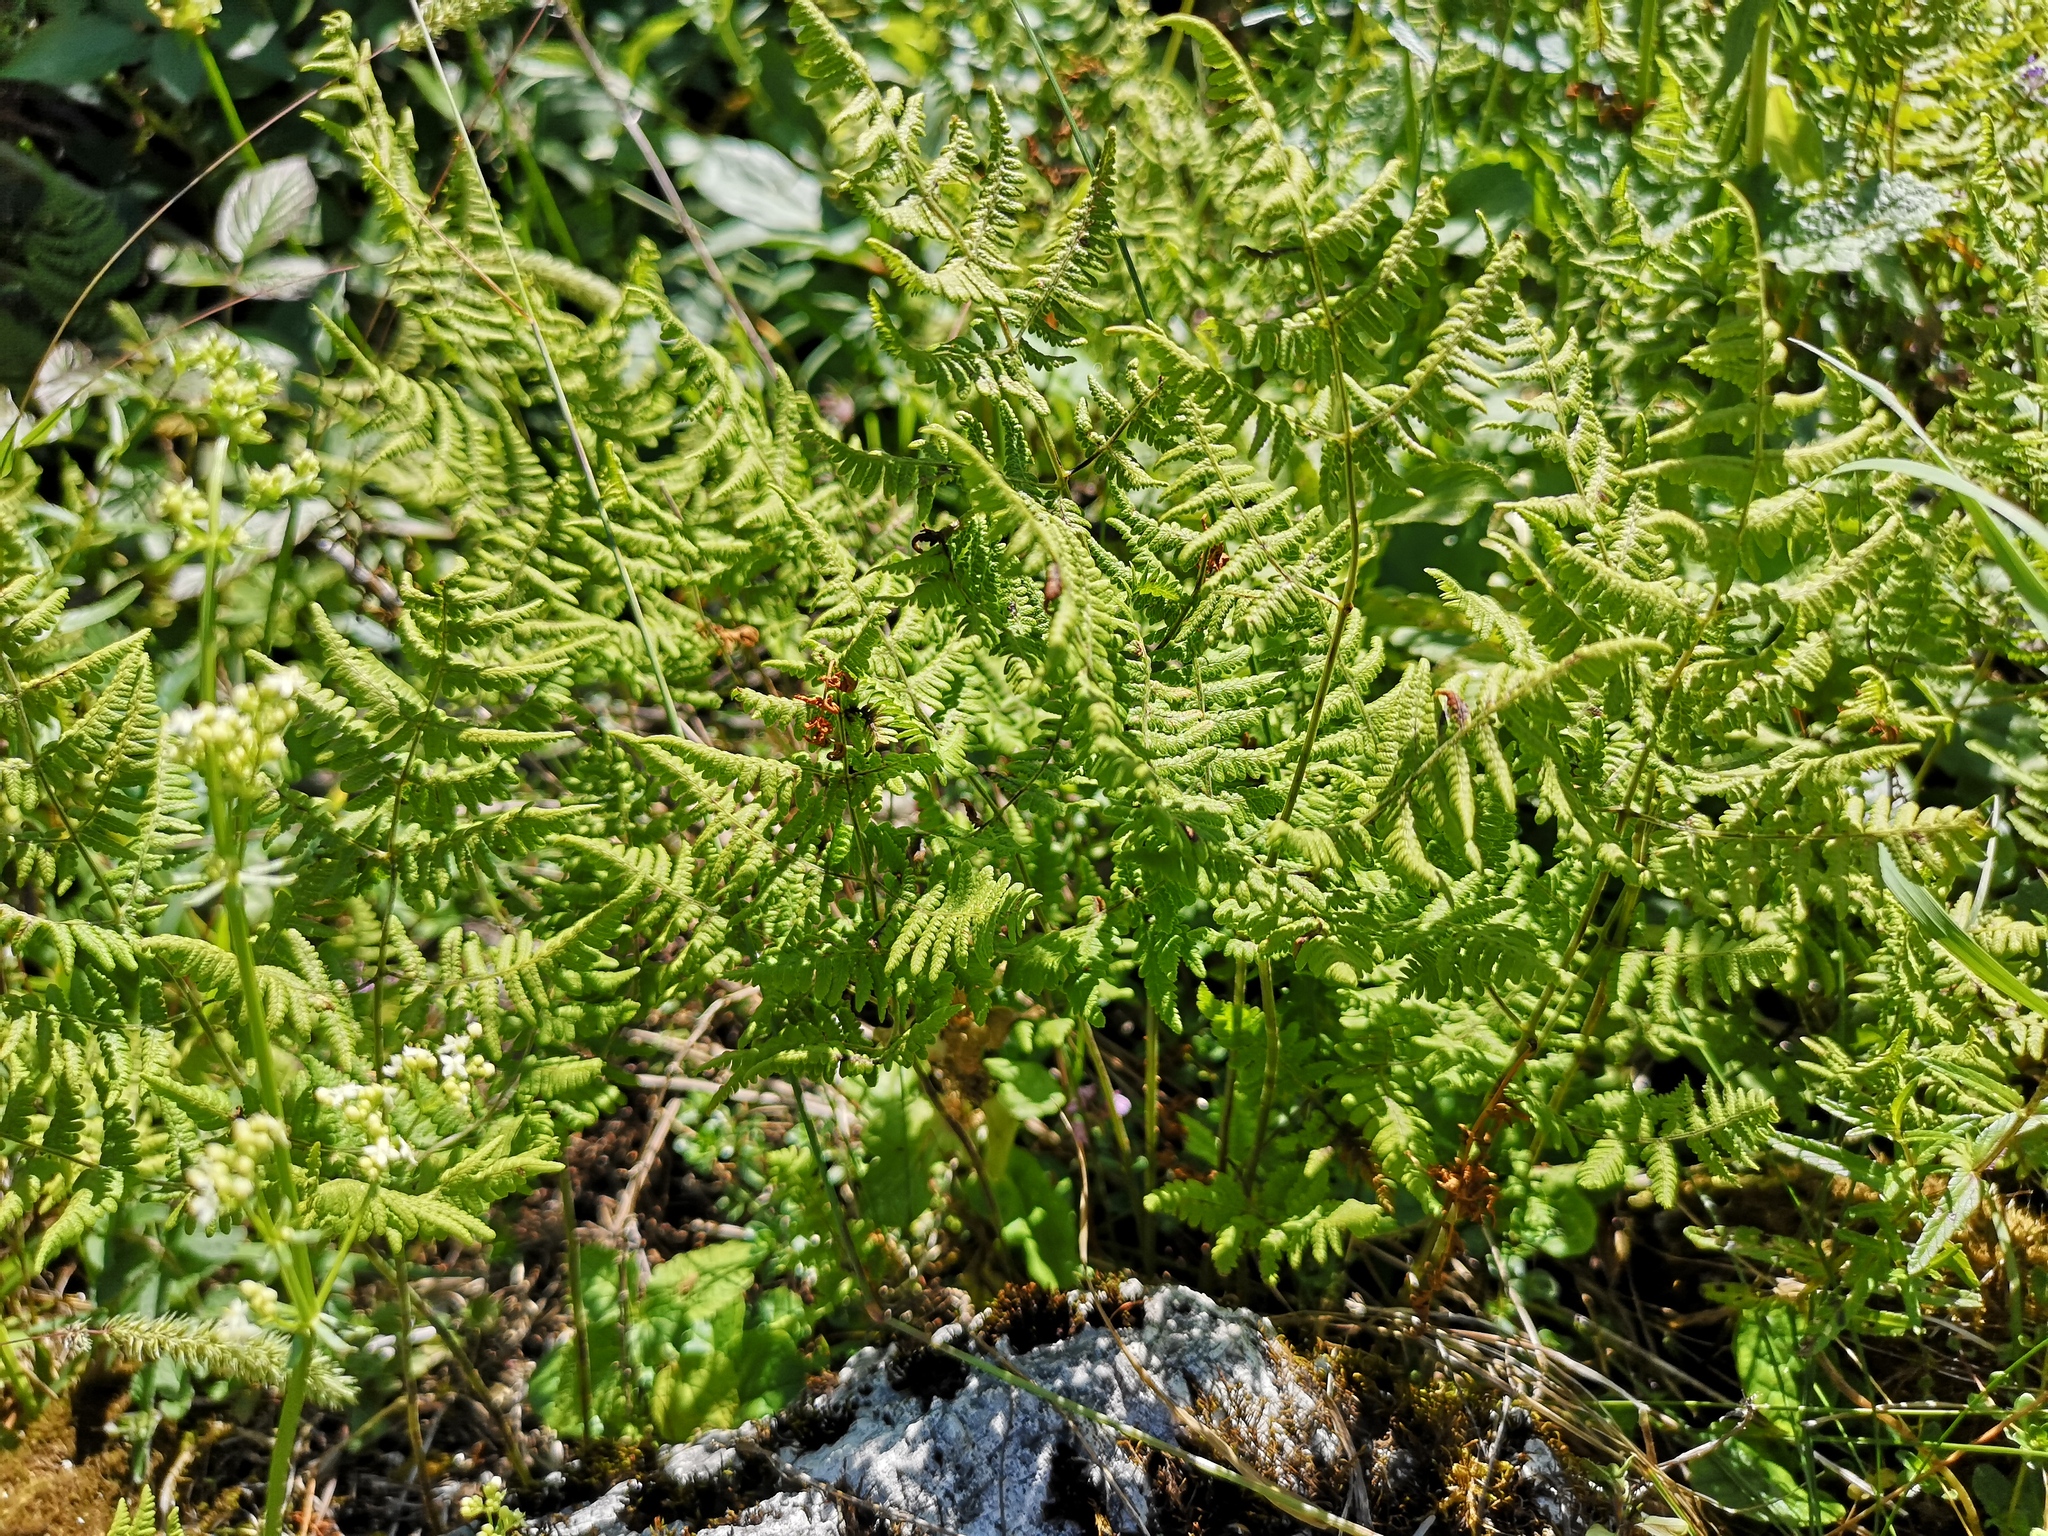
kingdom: Plantae
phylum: Tracheophyta
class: Polypodiopsida
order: Polypodiales
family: Cystopteridaceae
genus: Gymnocarpium
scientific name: Gymnocarpium robertianum
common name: Limestone fern
